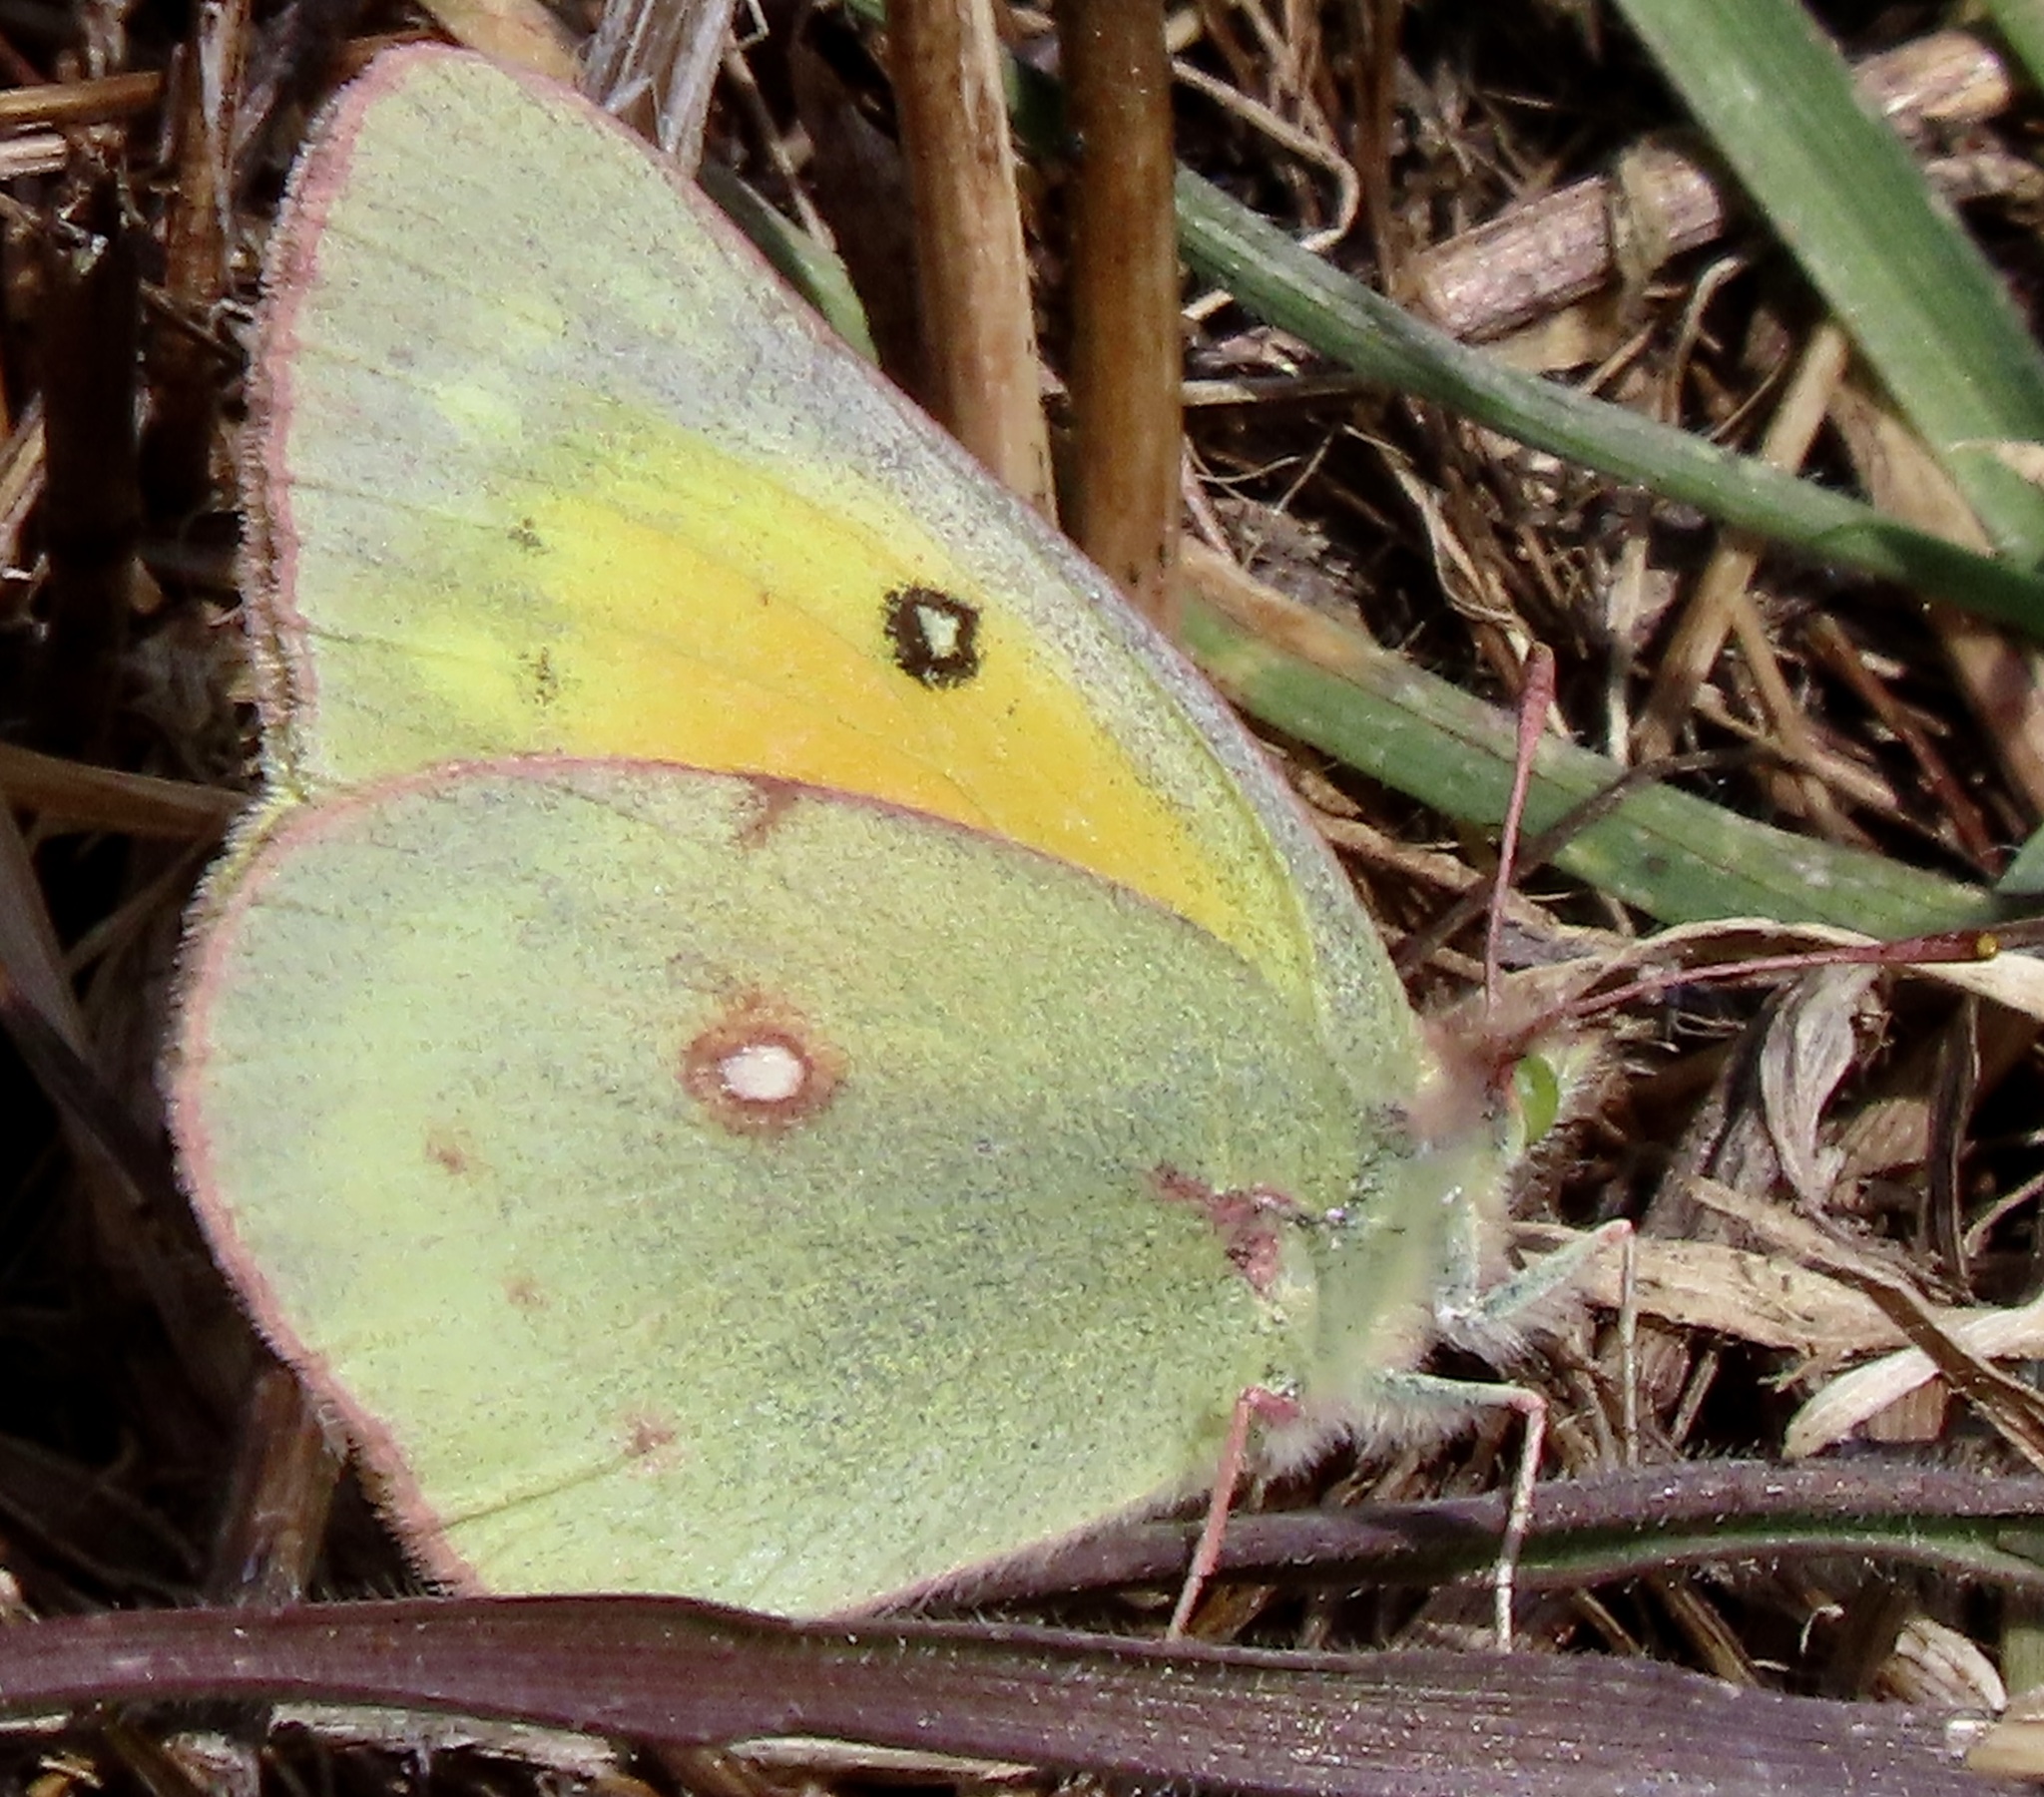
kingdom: Animalia
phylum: Arthropoda
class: Insecta
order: Lepidoptera
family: Pieridae
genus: Colias
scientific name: Colias eurytheme
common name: Alfalfa butterfly
